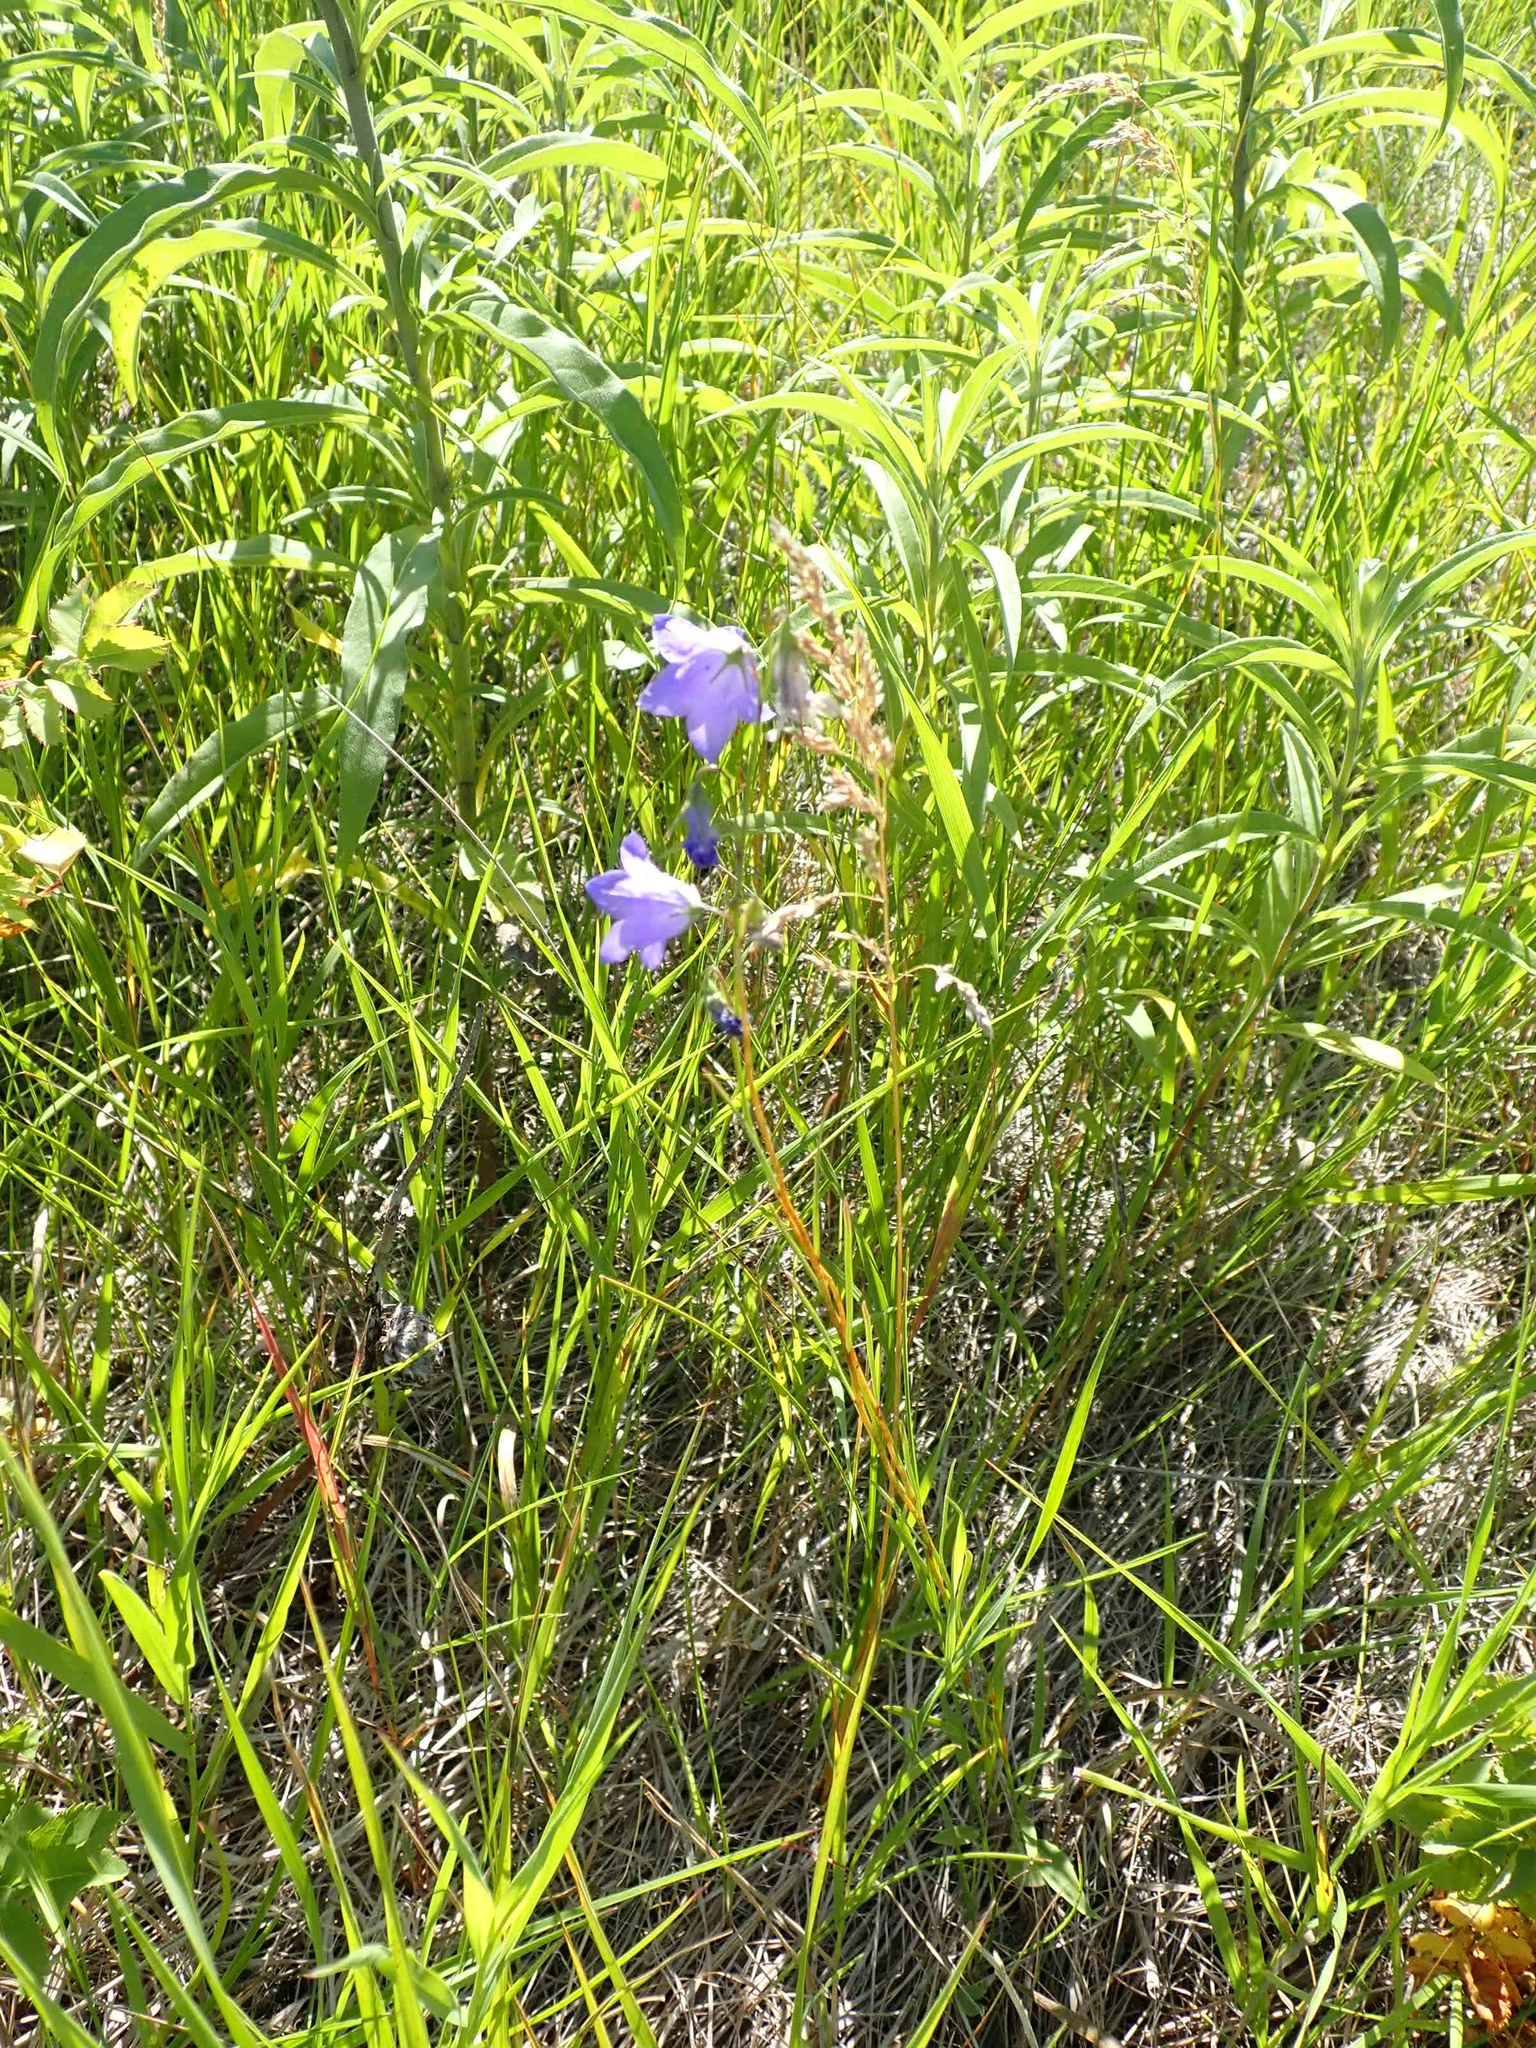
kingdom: Plantae
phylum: Tracheophyta
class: Magnoliopsida
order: Asterales
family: Campanulaceae
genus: Campanula
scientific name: Campanula petiolata
